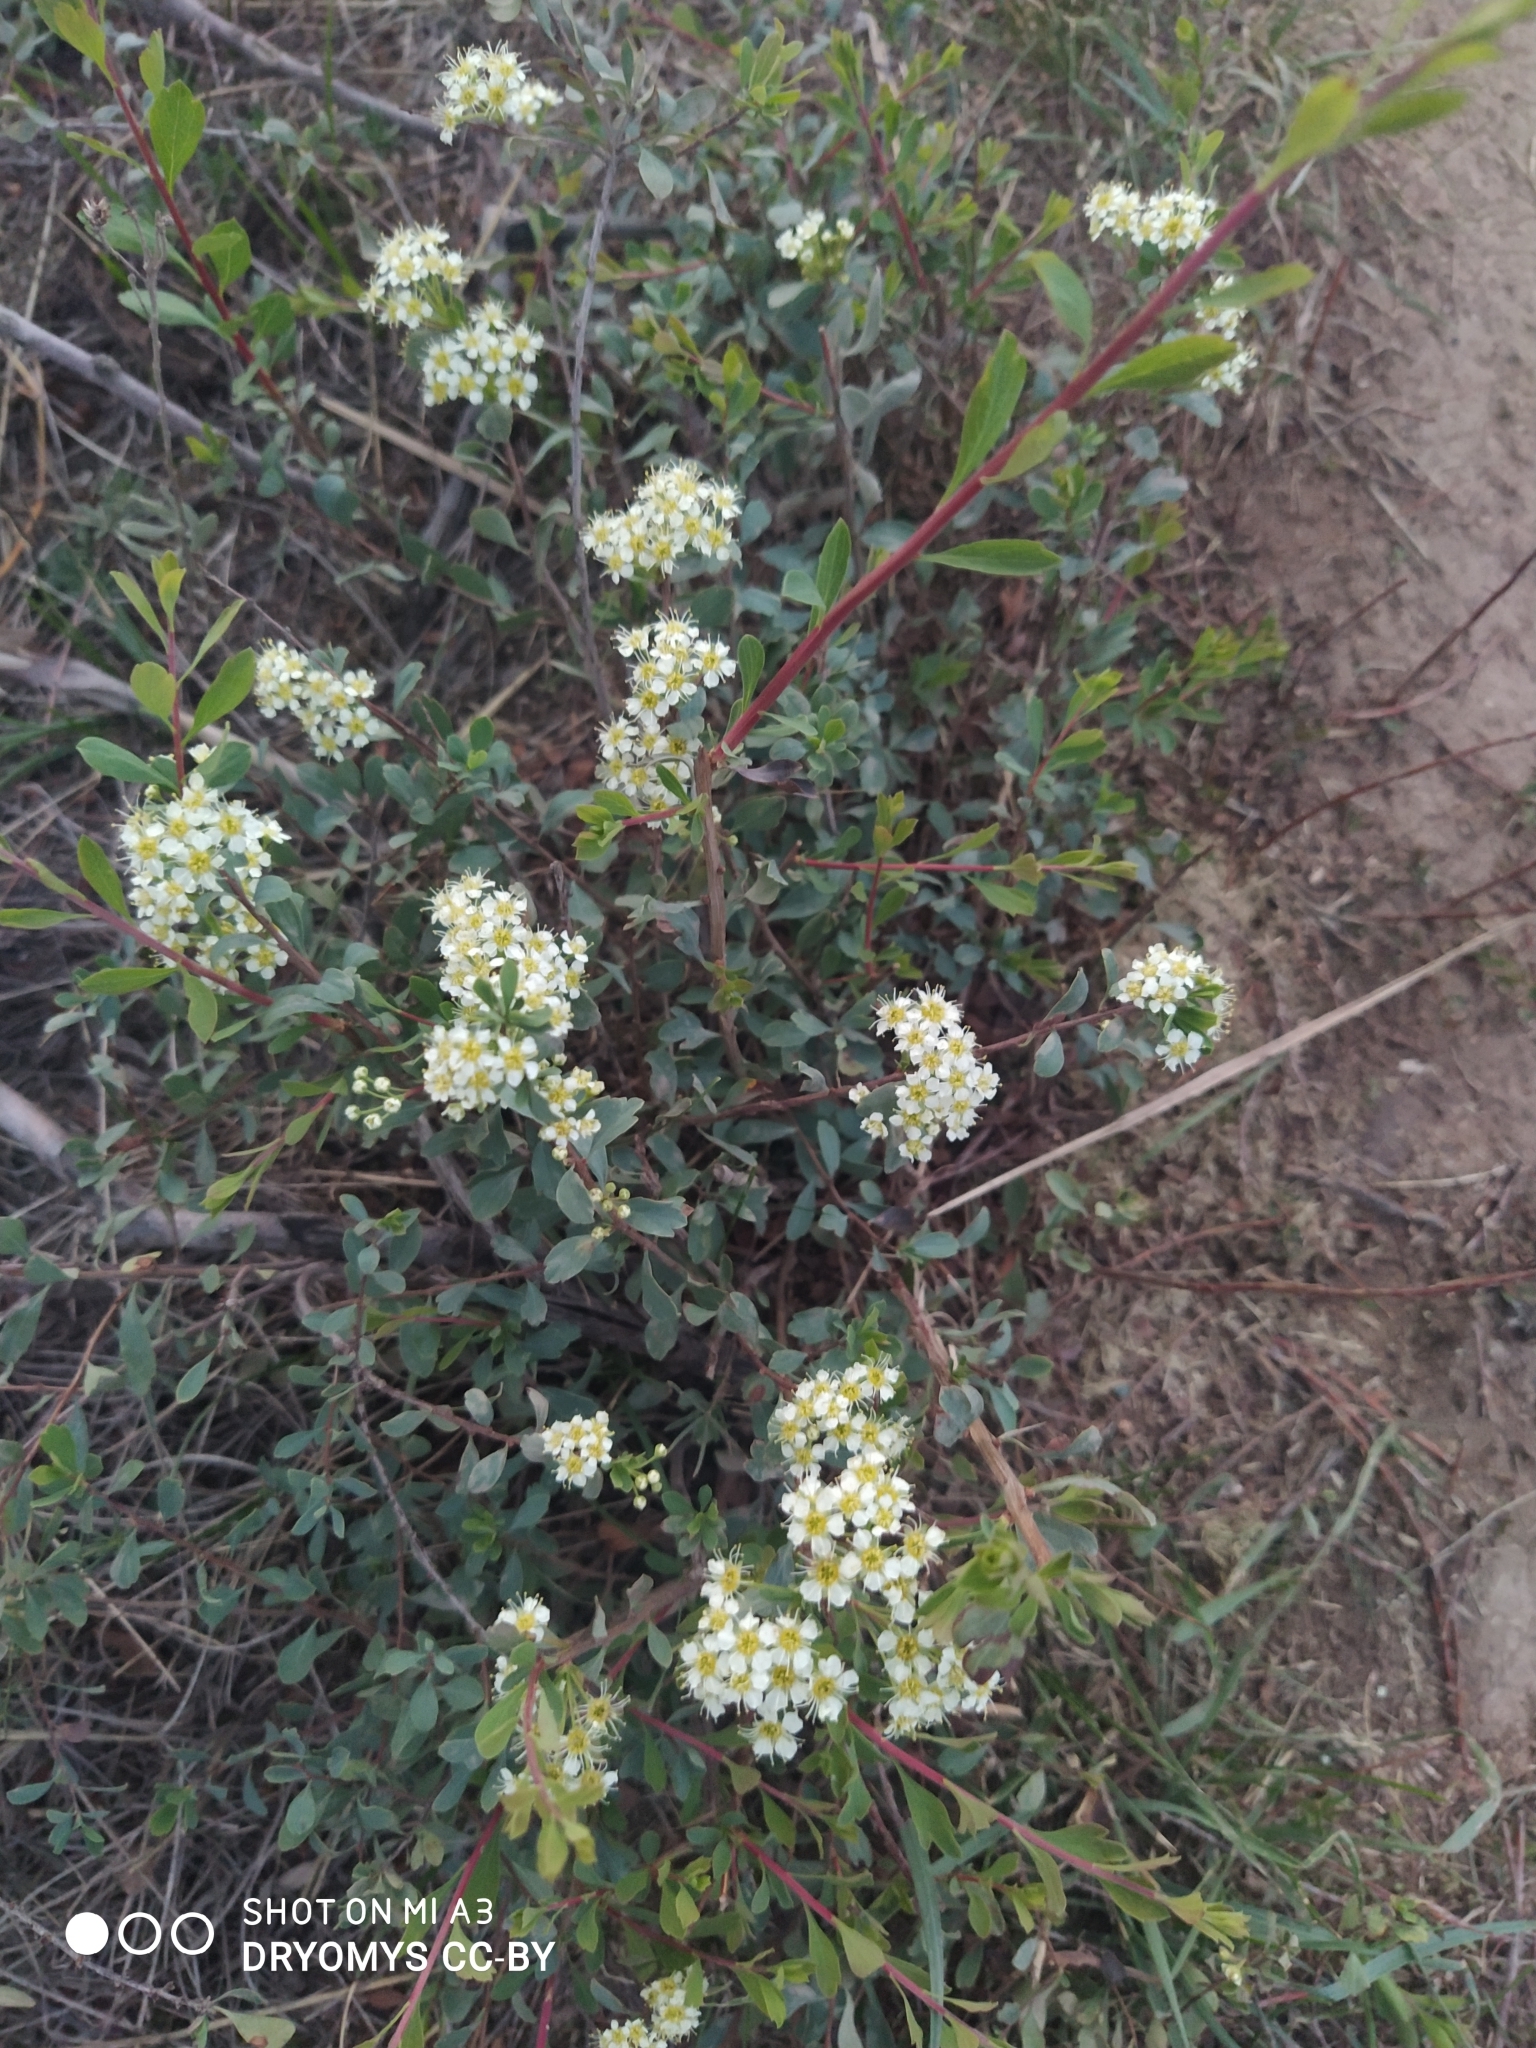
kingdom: Plantae
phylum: Tracheophyta
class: Magnoliopsida
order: Rosales
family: Rosaceae
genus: Spiraea
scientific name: Spiraea hypericifolia
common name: Iberian spirea
